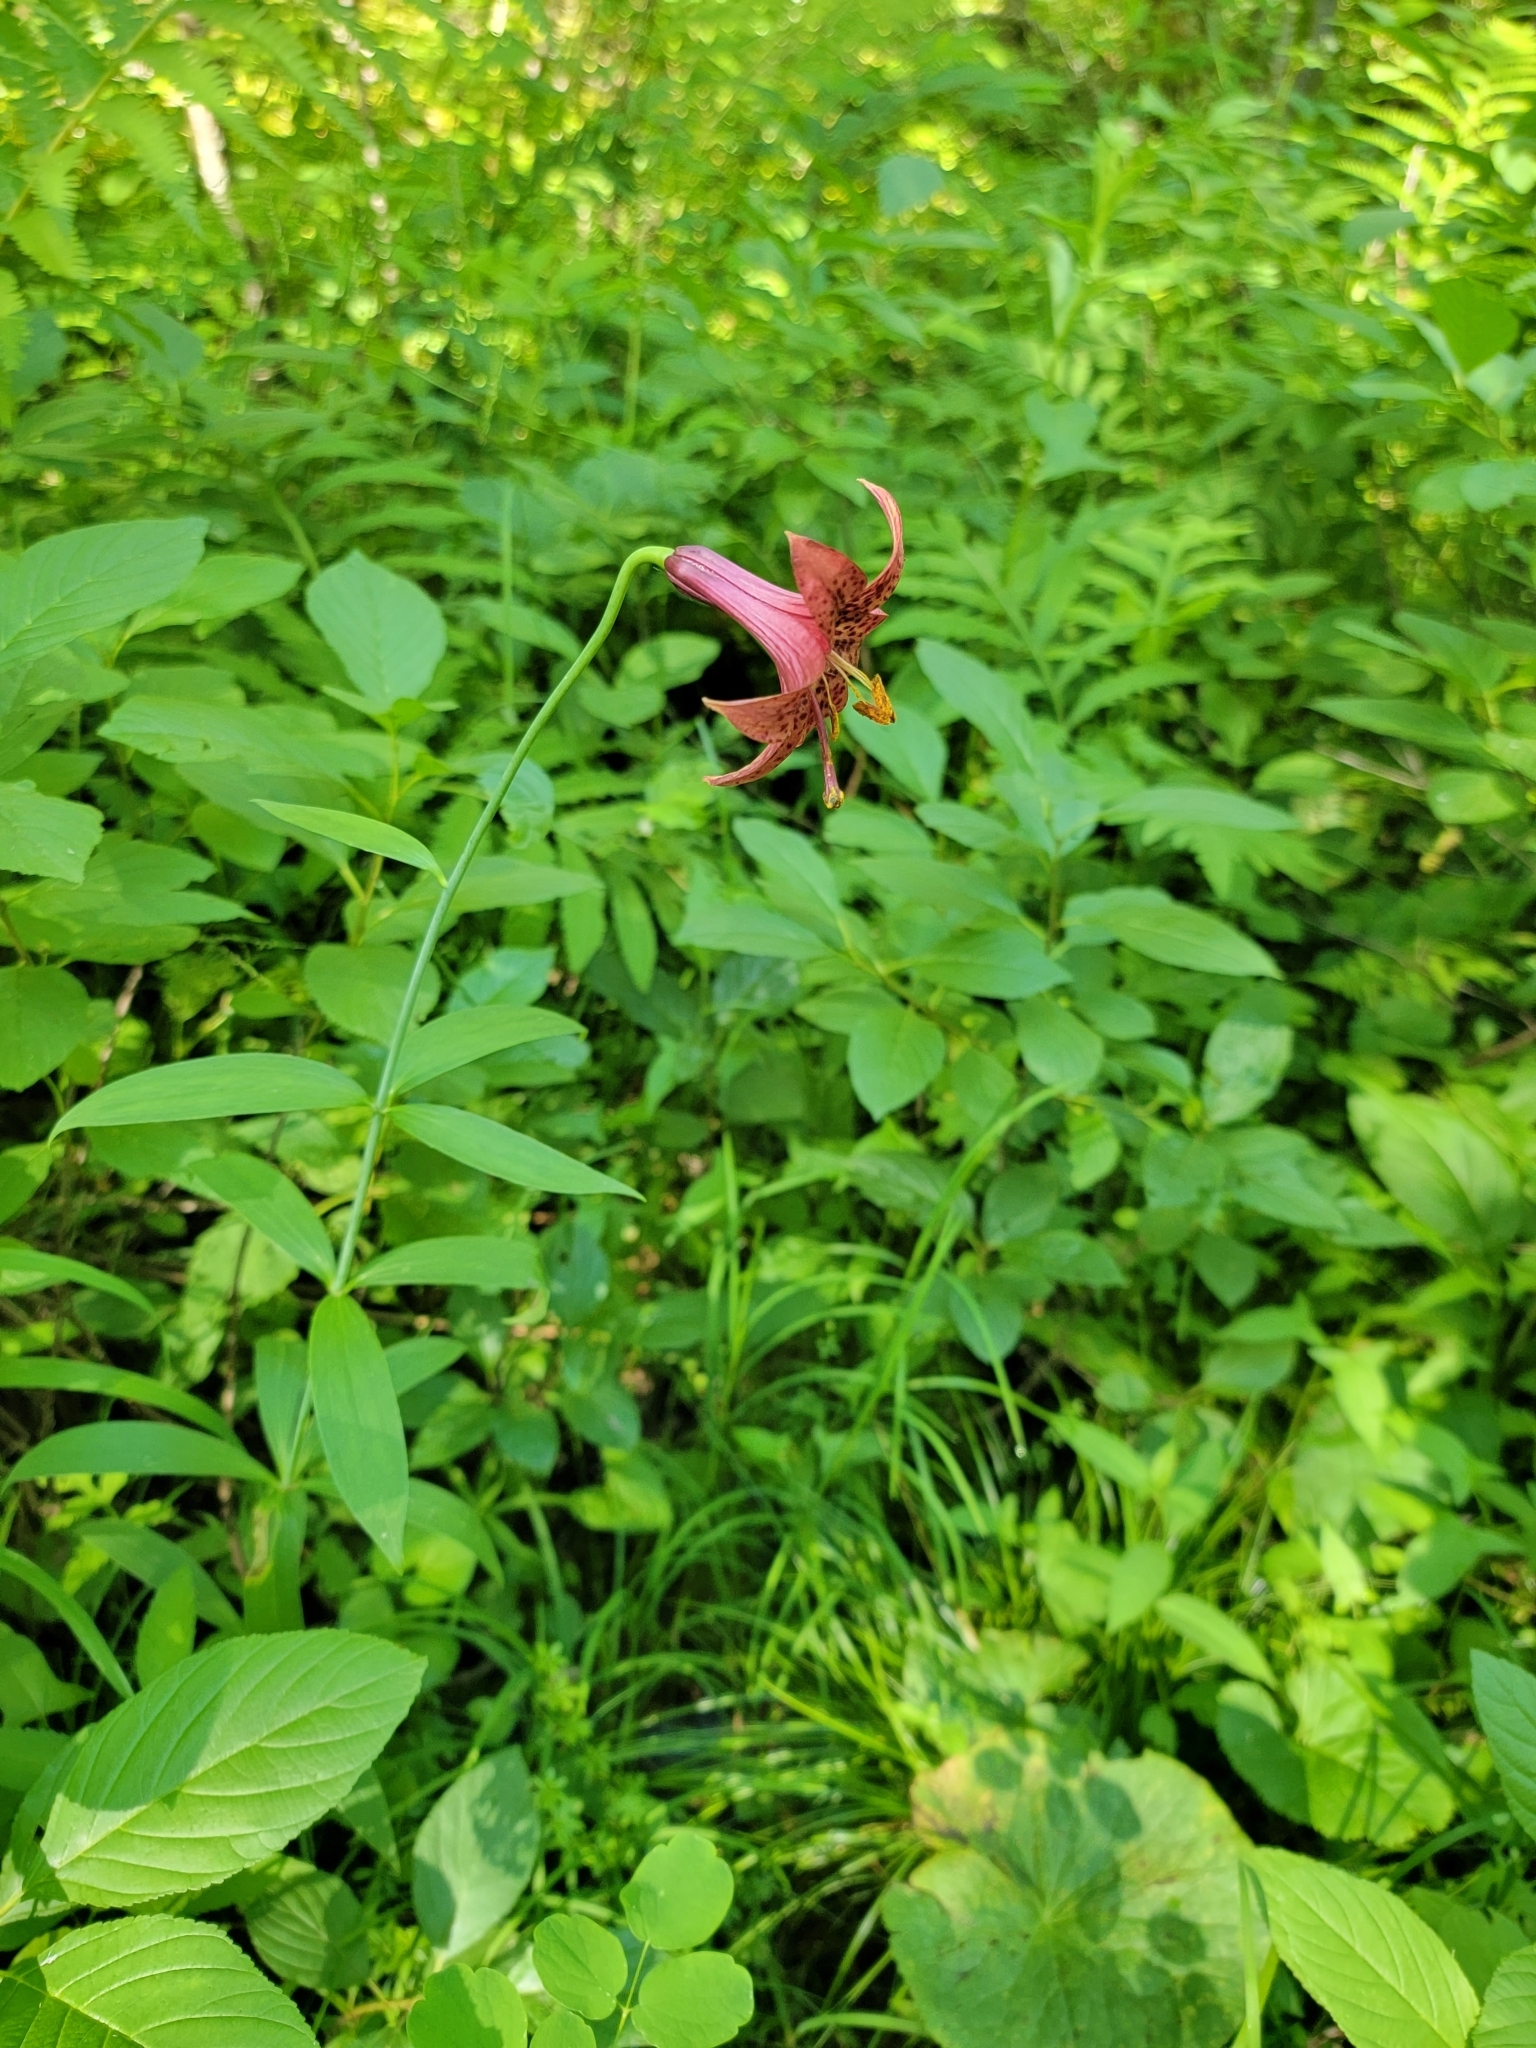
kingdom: Plantae
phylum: Tracheophyta
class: Liliopsida
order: Liliales
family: Liliaceae
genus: Lilium
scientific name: Lilium canadense
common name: Canada lily
